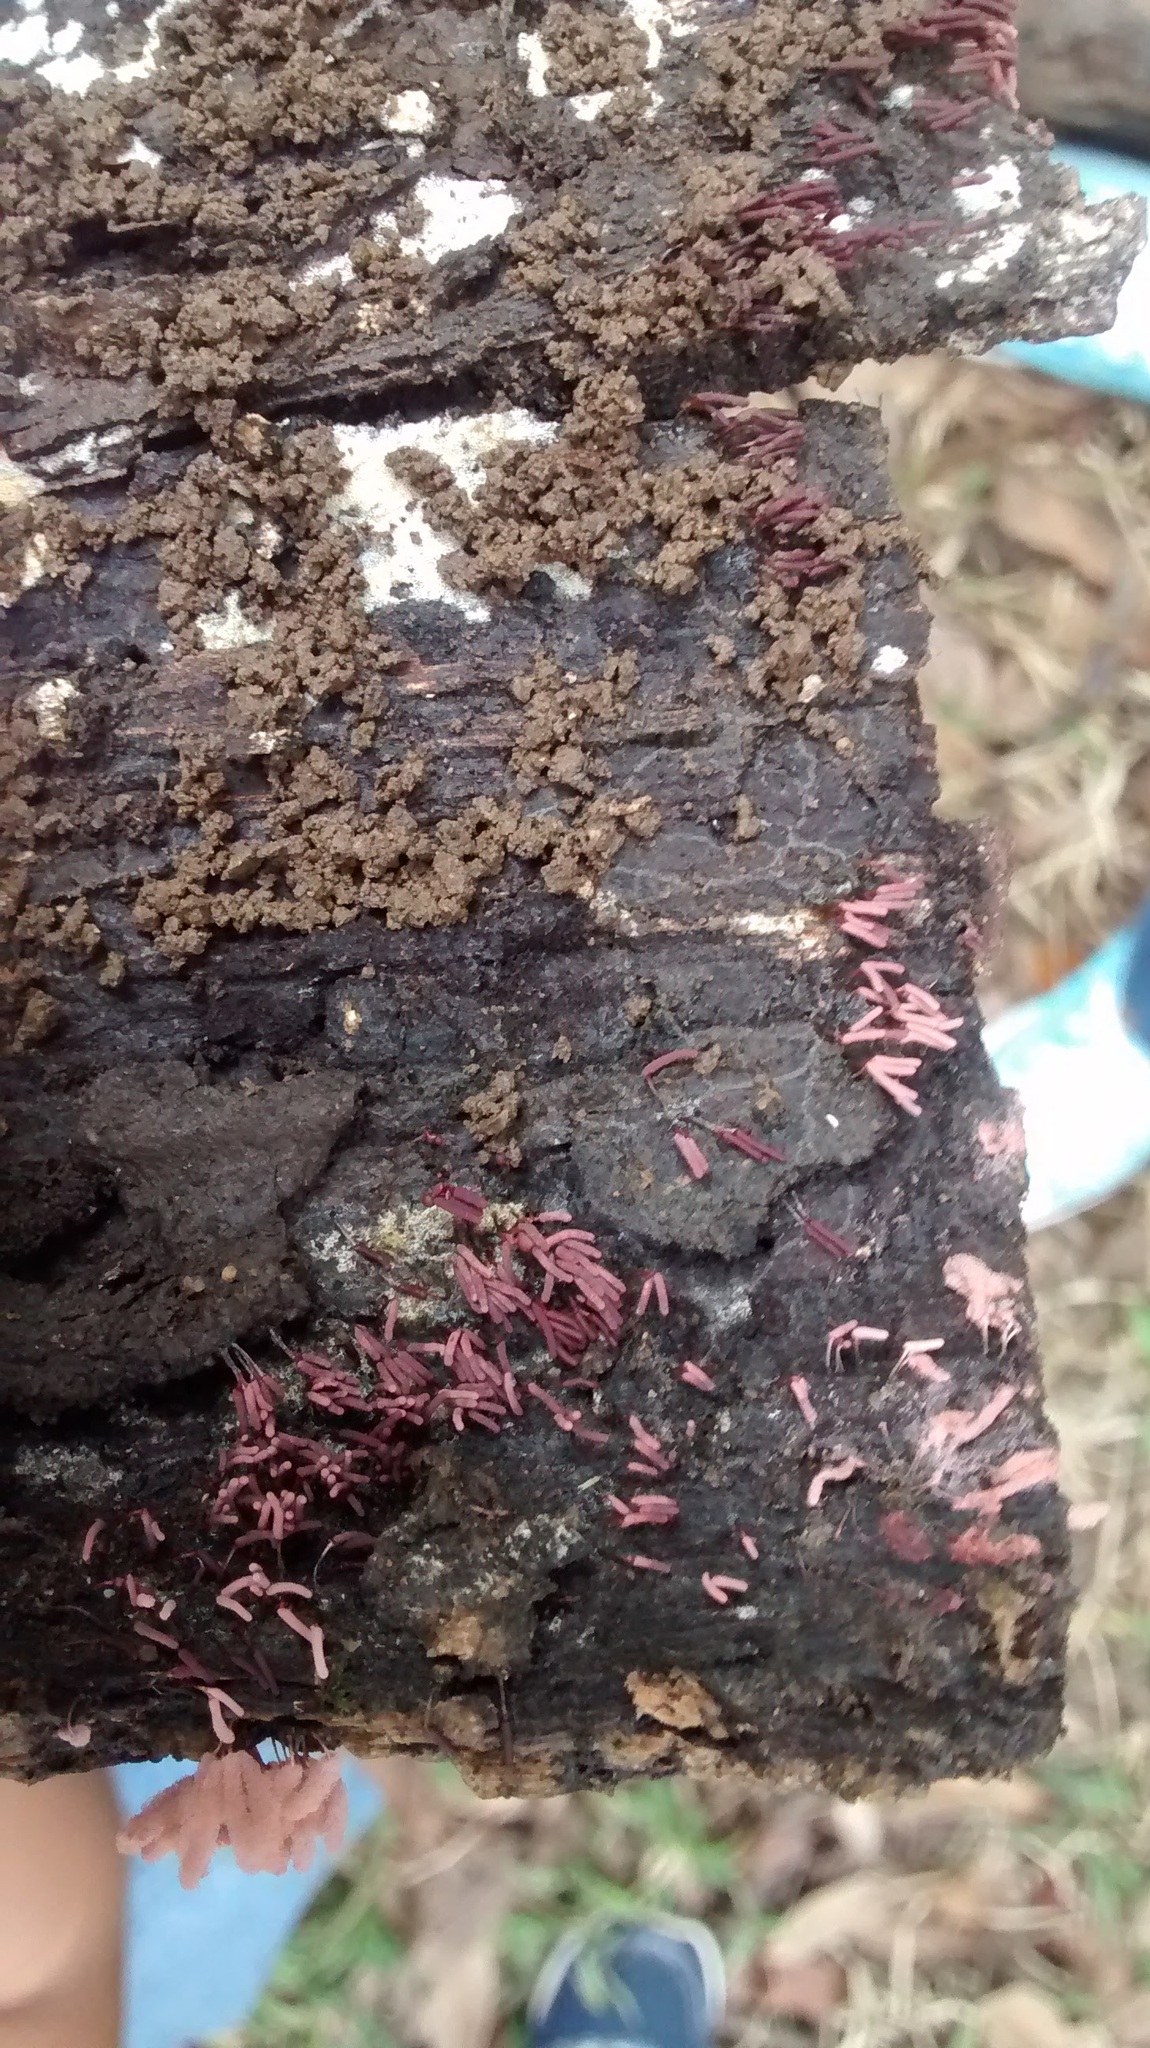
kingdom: Protozoa
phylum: Mycetozoa
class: Myxomycetes
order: Trichiales
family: Arcyriaceae
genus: Arcyria
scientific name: Arcyria denudata
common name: Carnival candy slime mold
